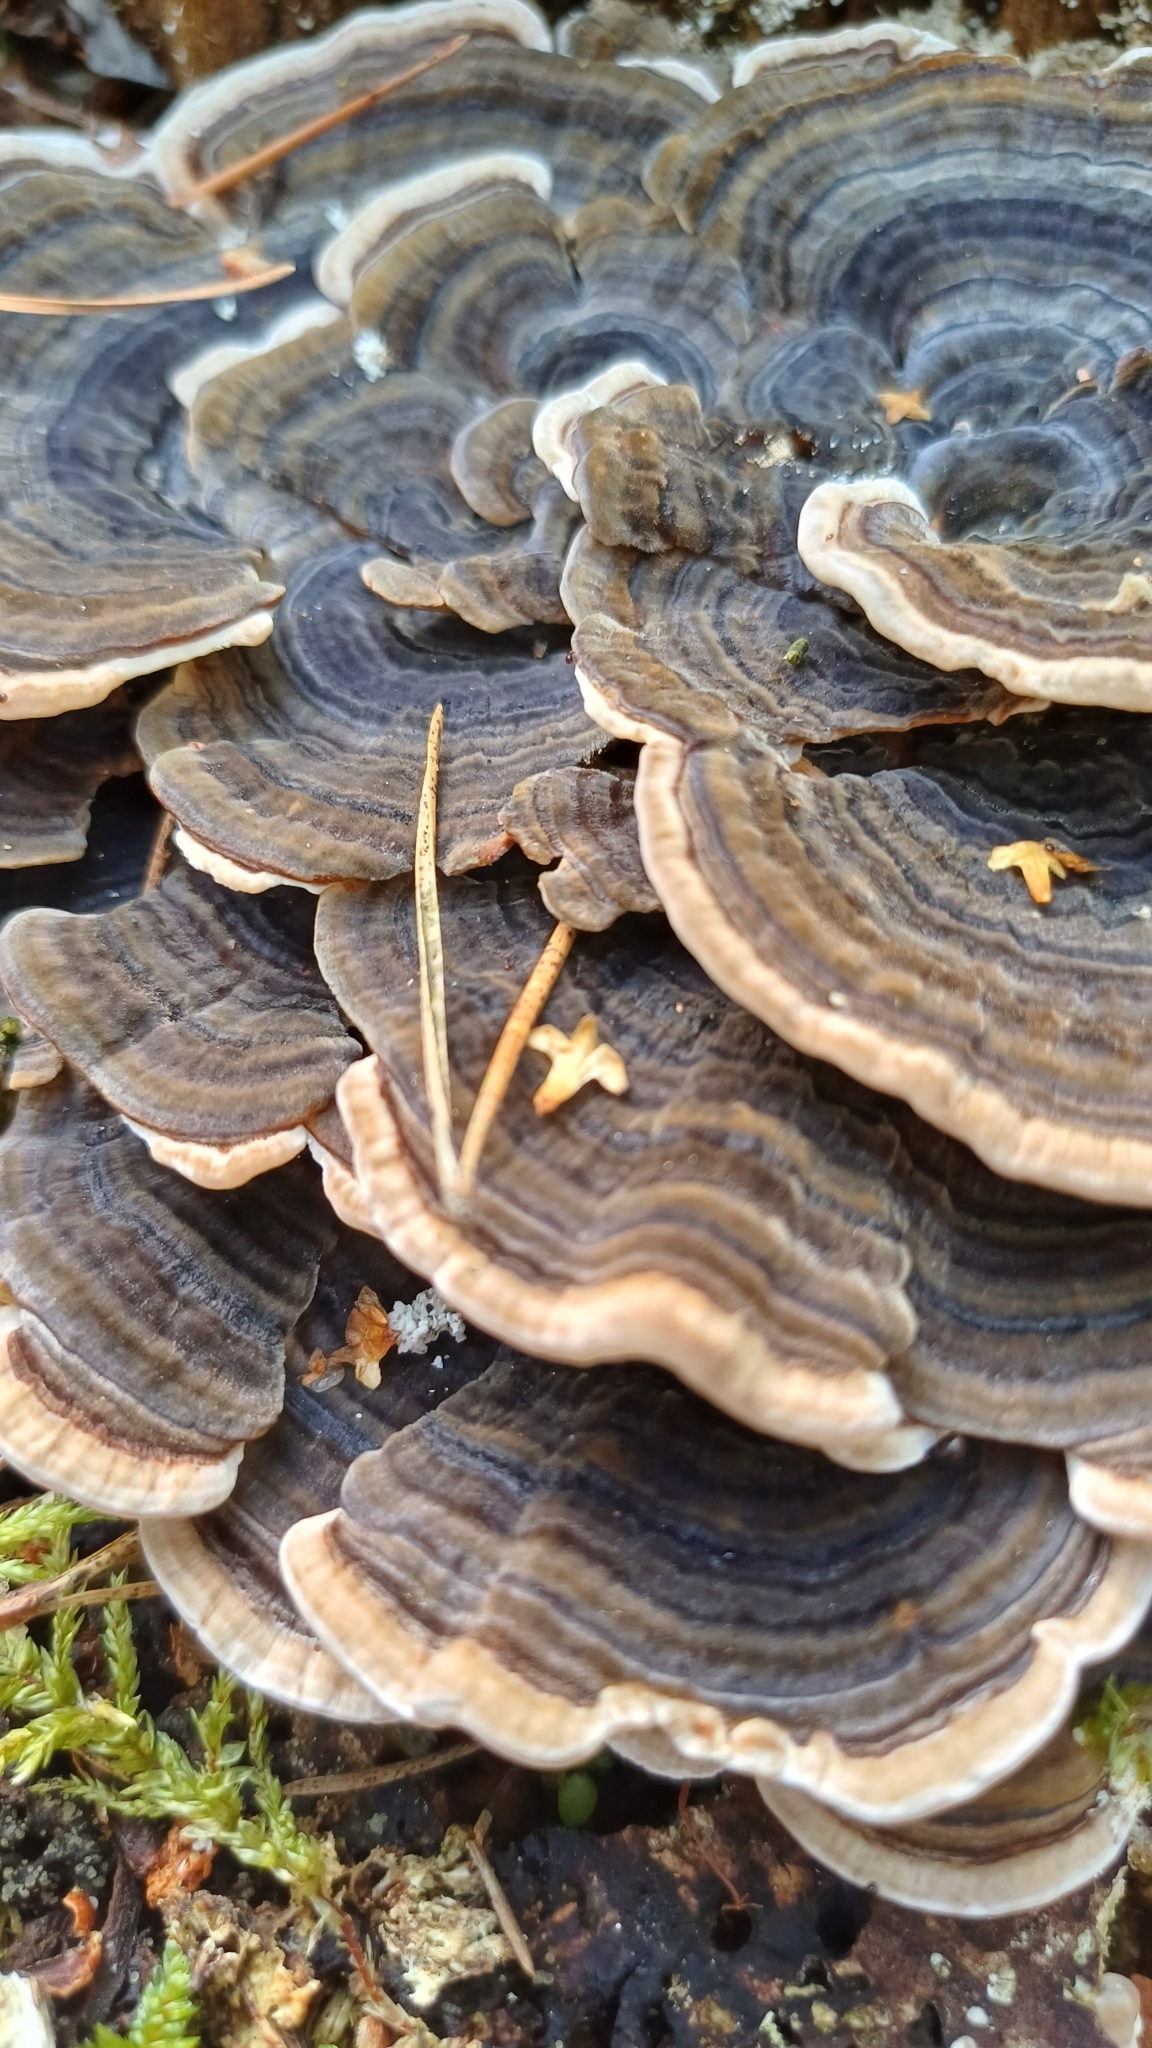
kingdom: Fungi
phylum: Basidiomycota
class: Agaricomycetes
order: Polyporales
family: Polyporaceae
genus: Trametes
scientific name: Trametes versicolor
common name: Turkeytail
